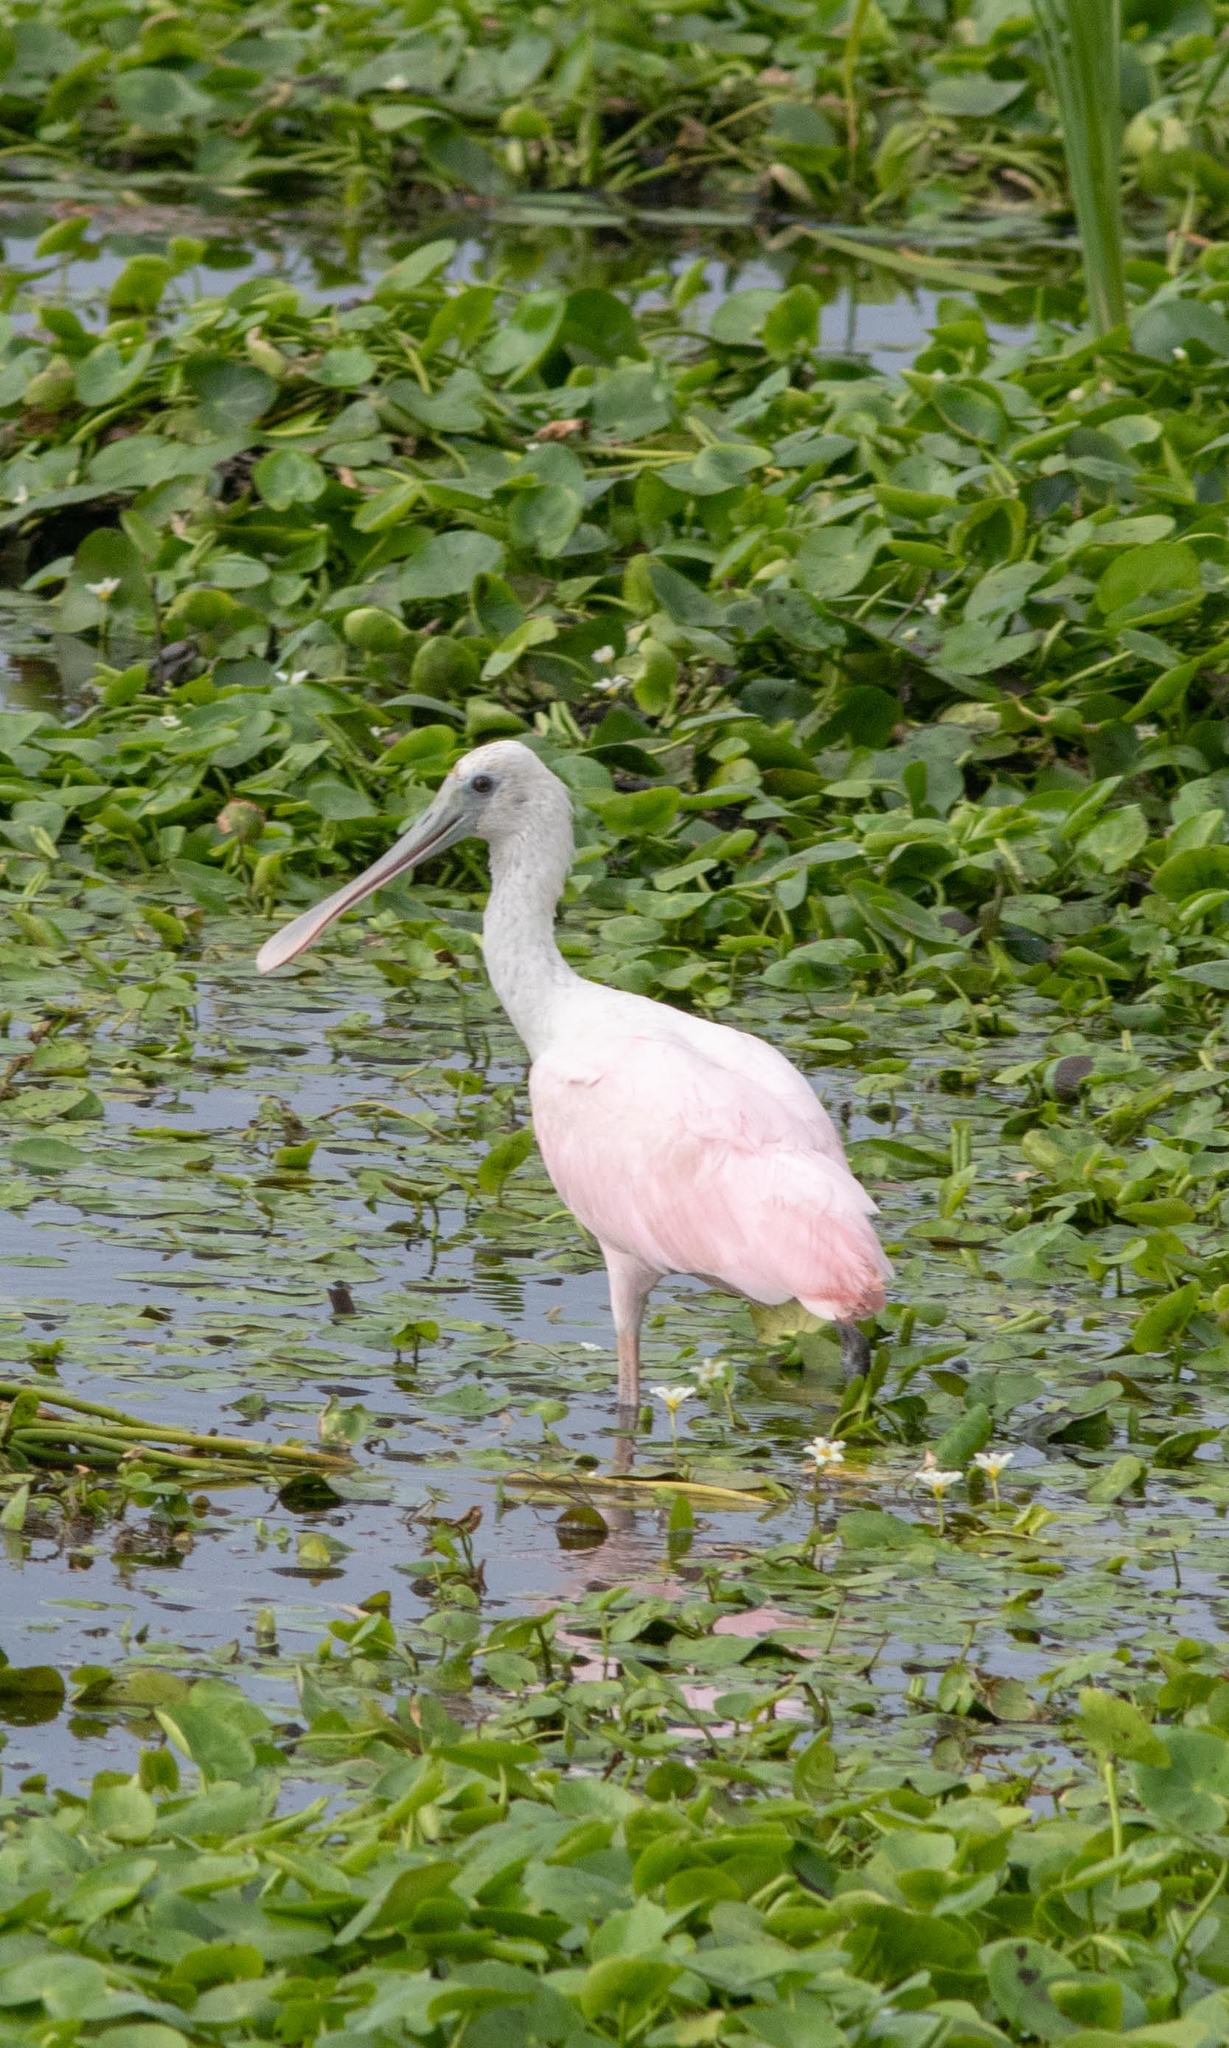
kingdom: Animalia
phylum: Chordata
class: Aves
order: Pelecaniformes
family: Threskiornithidae
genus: Platalea
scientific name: Platalea ajaja
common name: Roseate spoonbill
